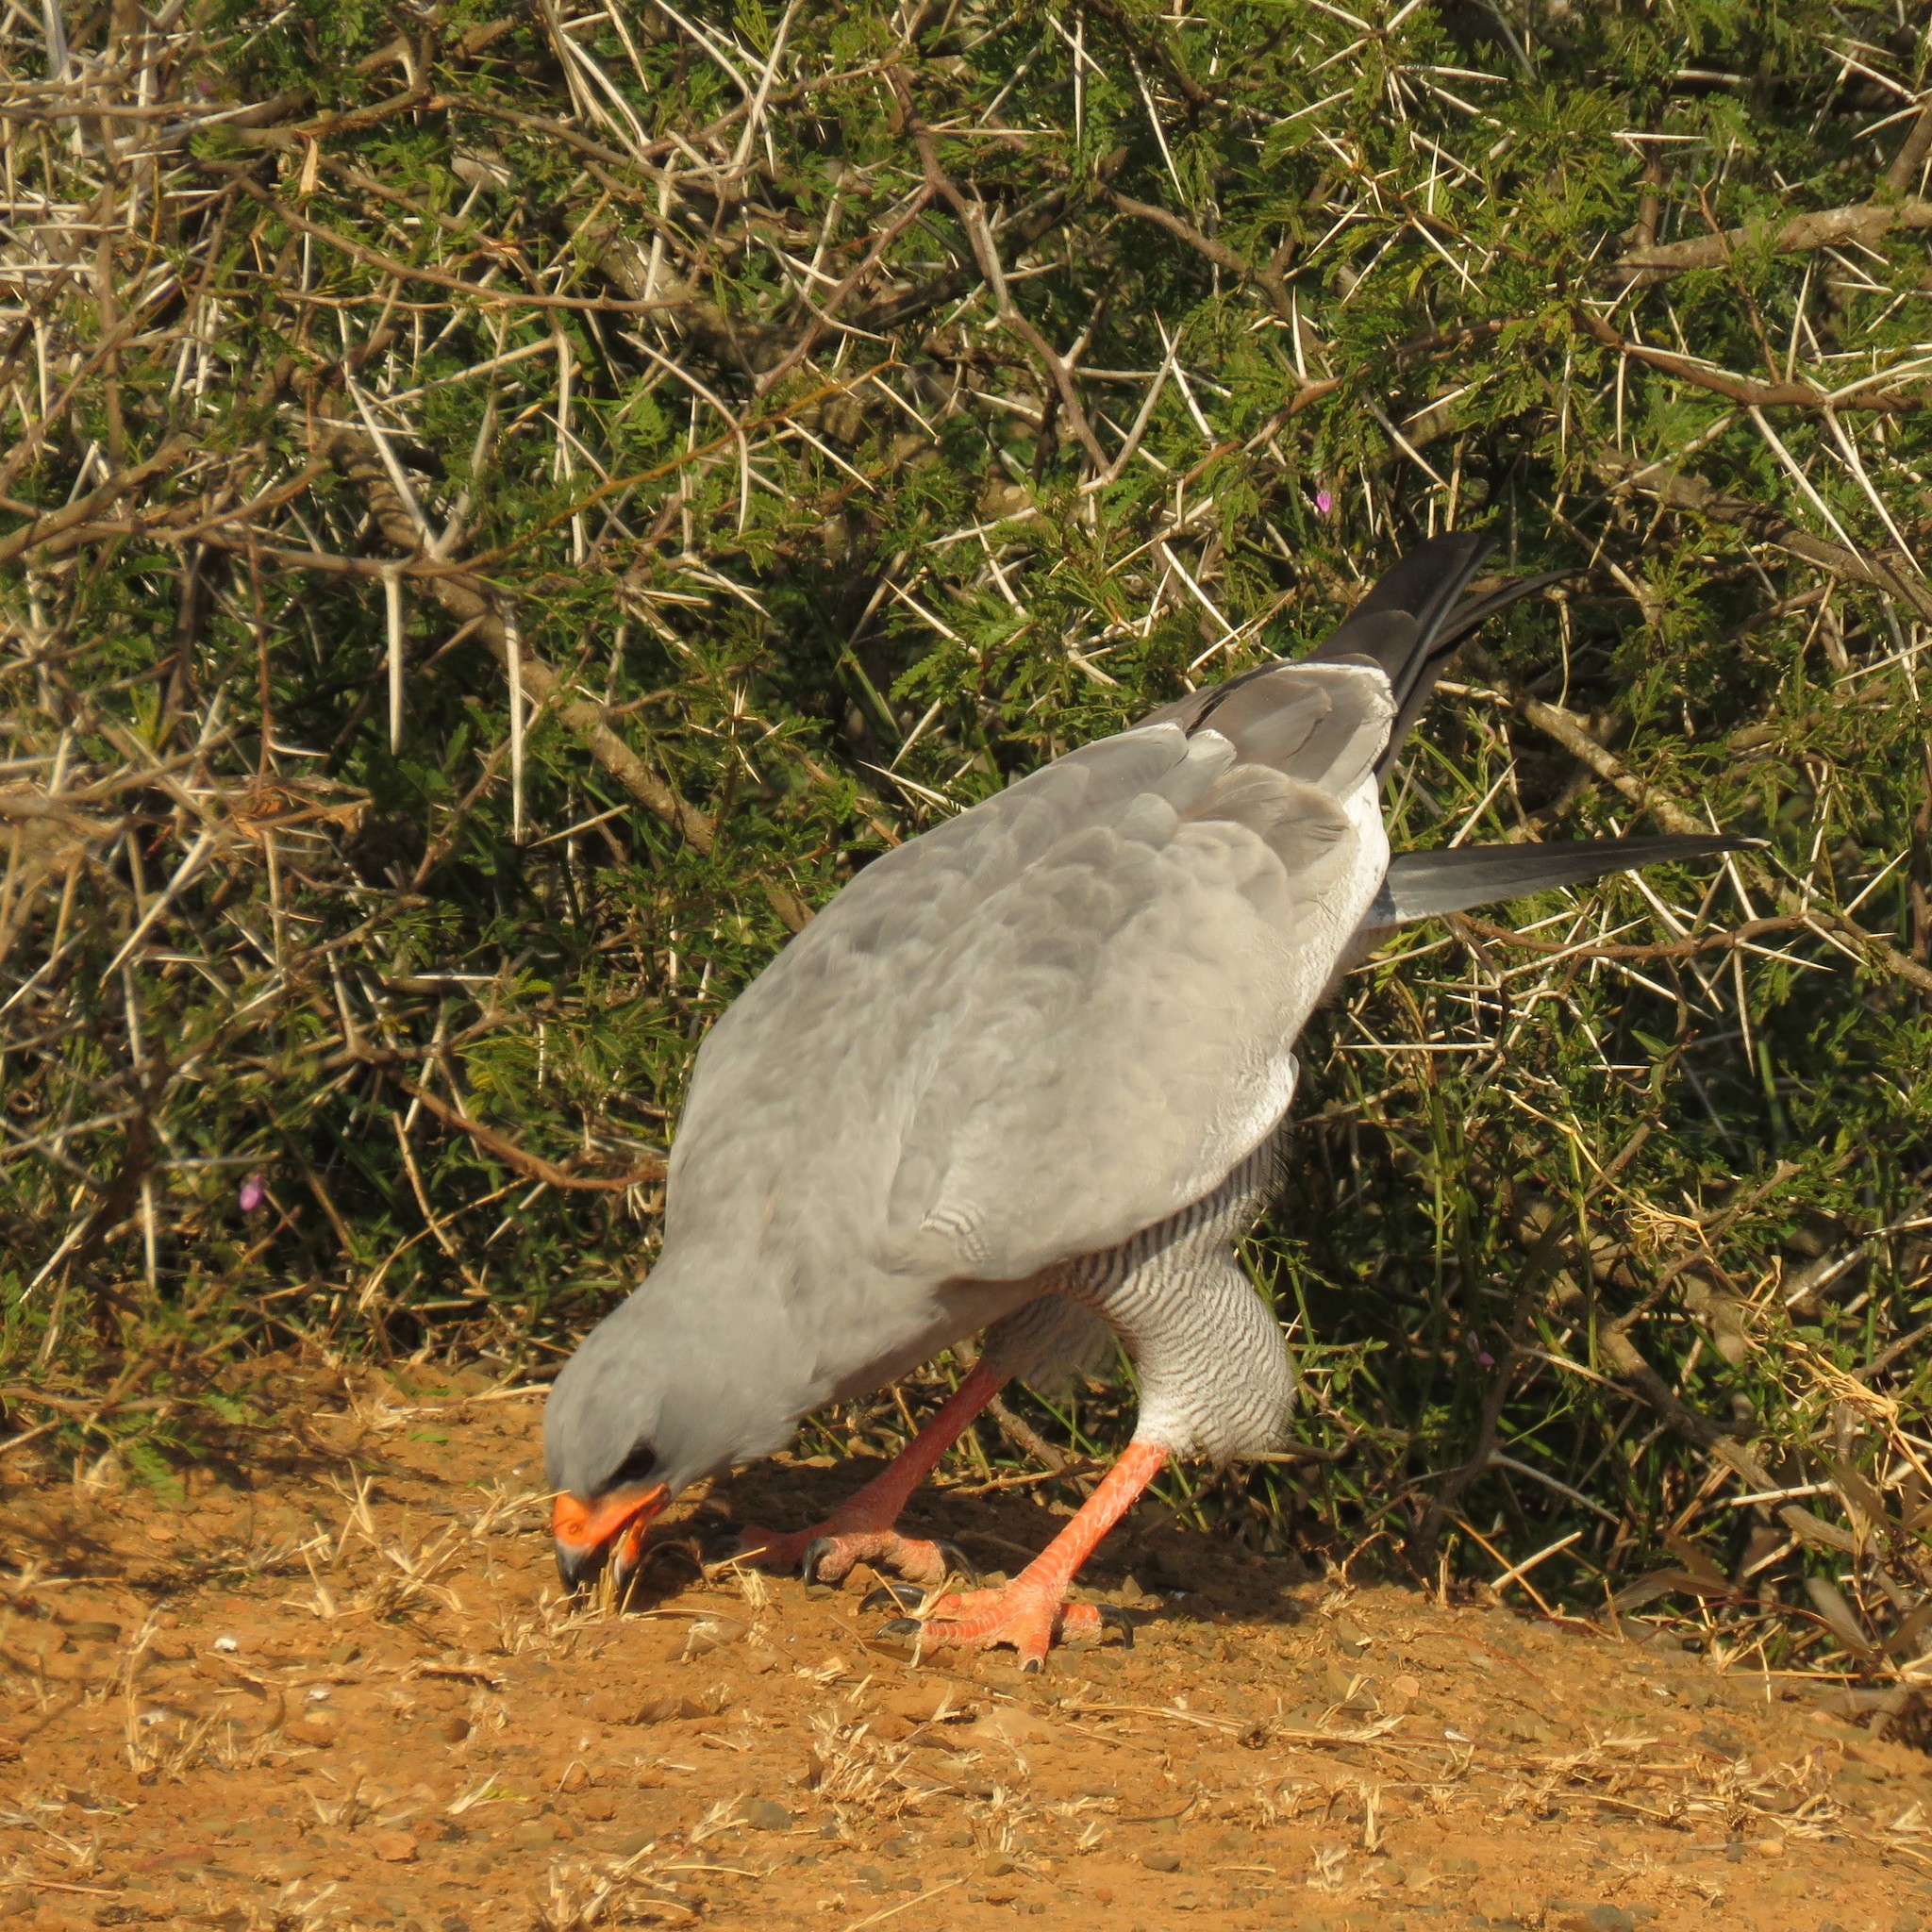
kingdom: Animalia
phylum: Chordata
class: Aves
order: Accipitriformes
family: Accipitridae
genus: Melierax
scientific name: Melierax canorus
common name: Pale chanting-goshawk
